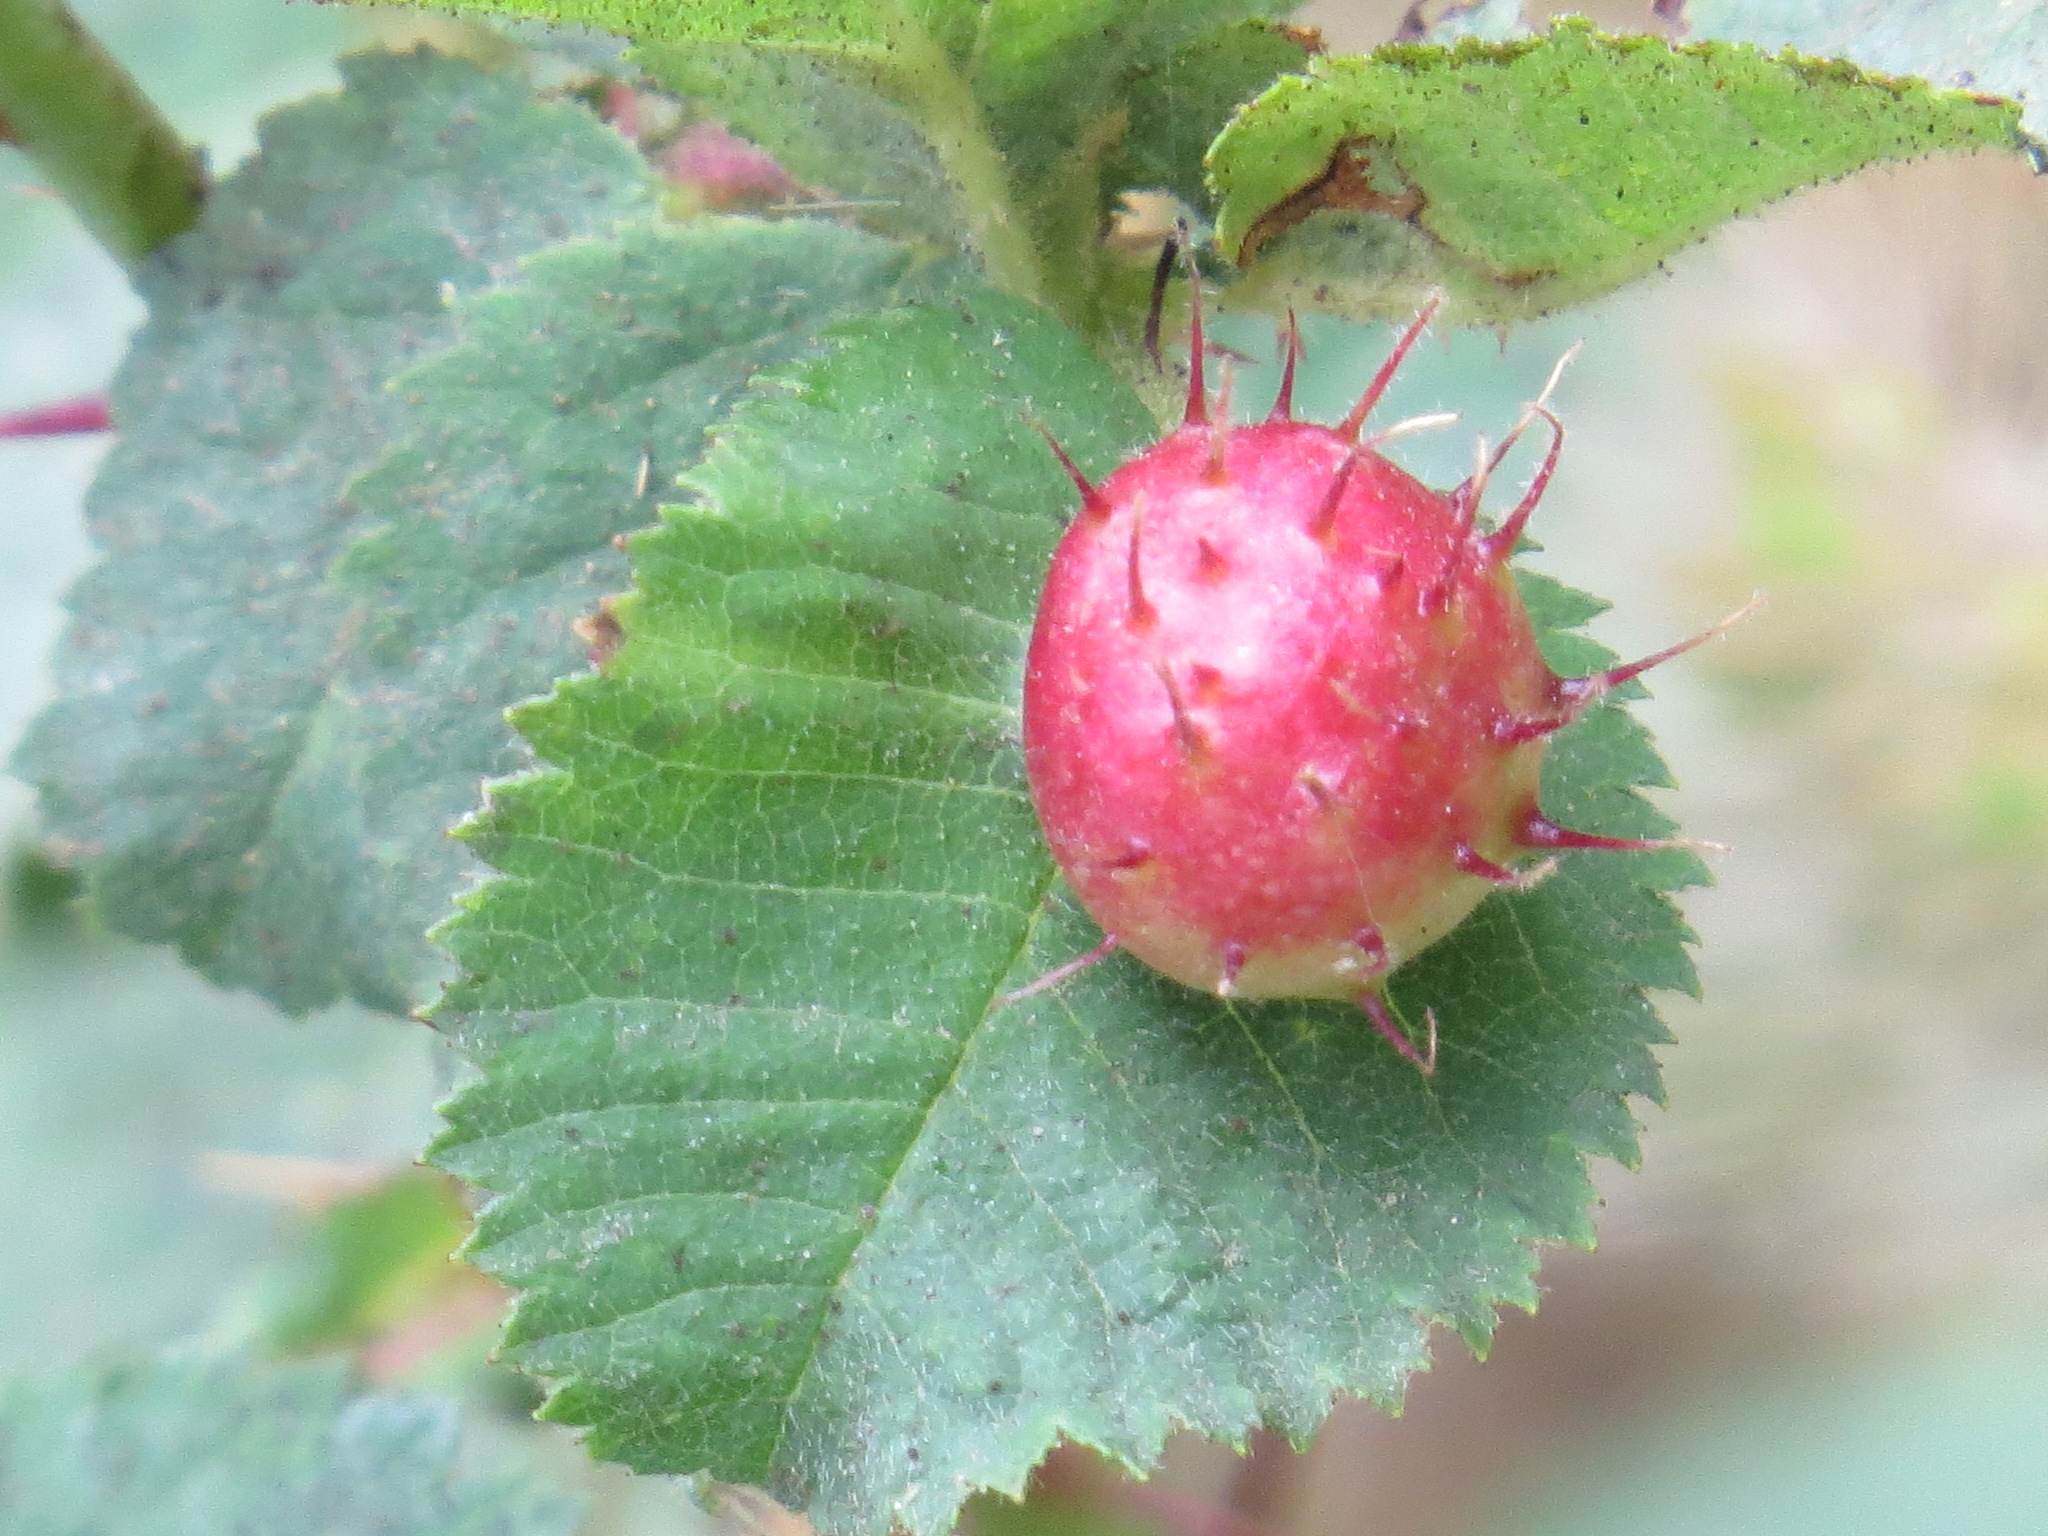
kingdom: Animalia
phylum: Arthropoda
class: Insecta
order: Hymenoptera
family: Cynipidae
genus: Diplolepis
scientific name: Diplolepis polita
